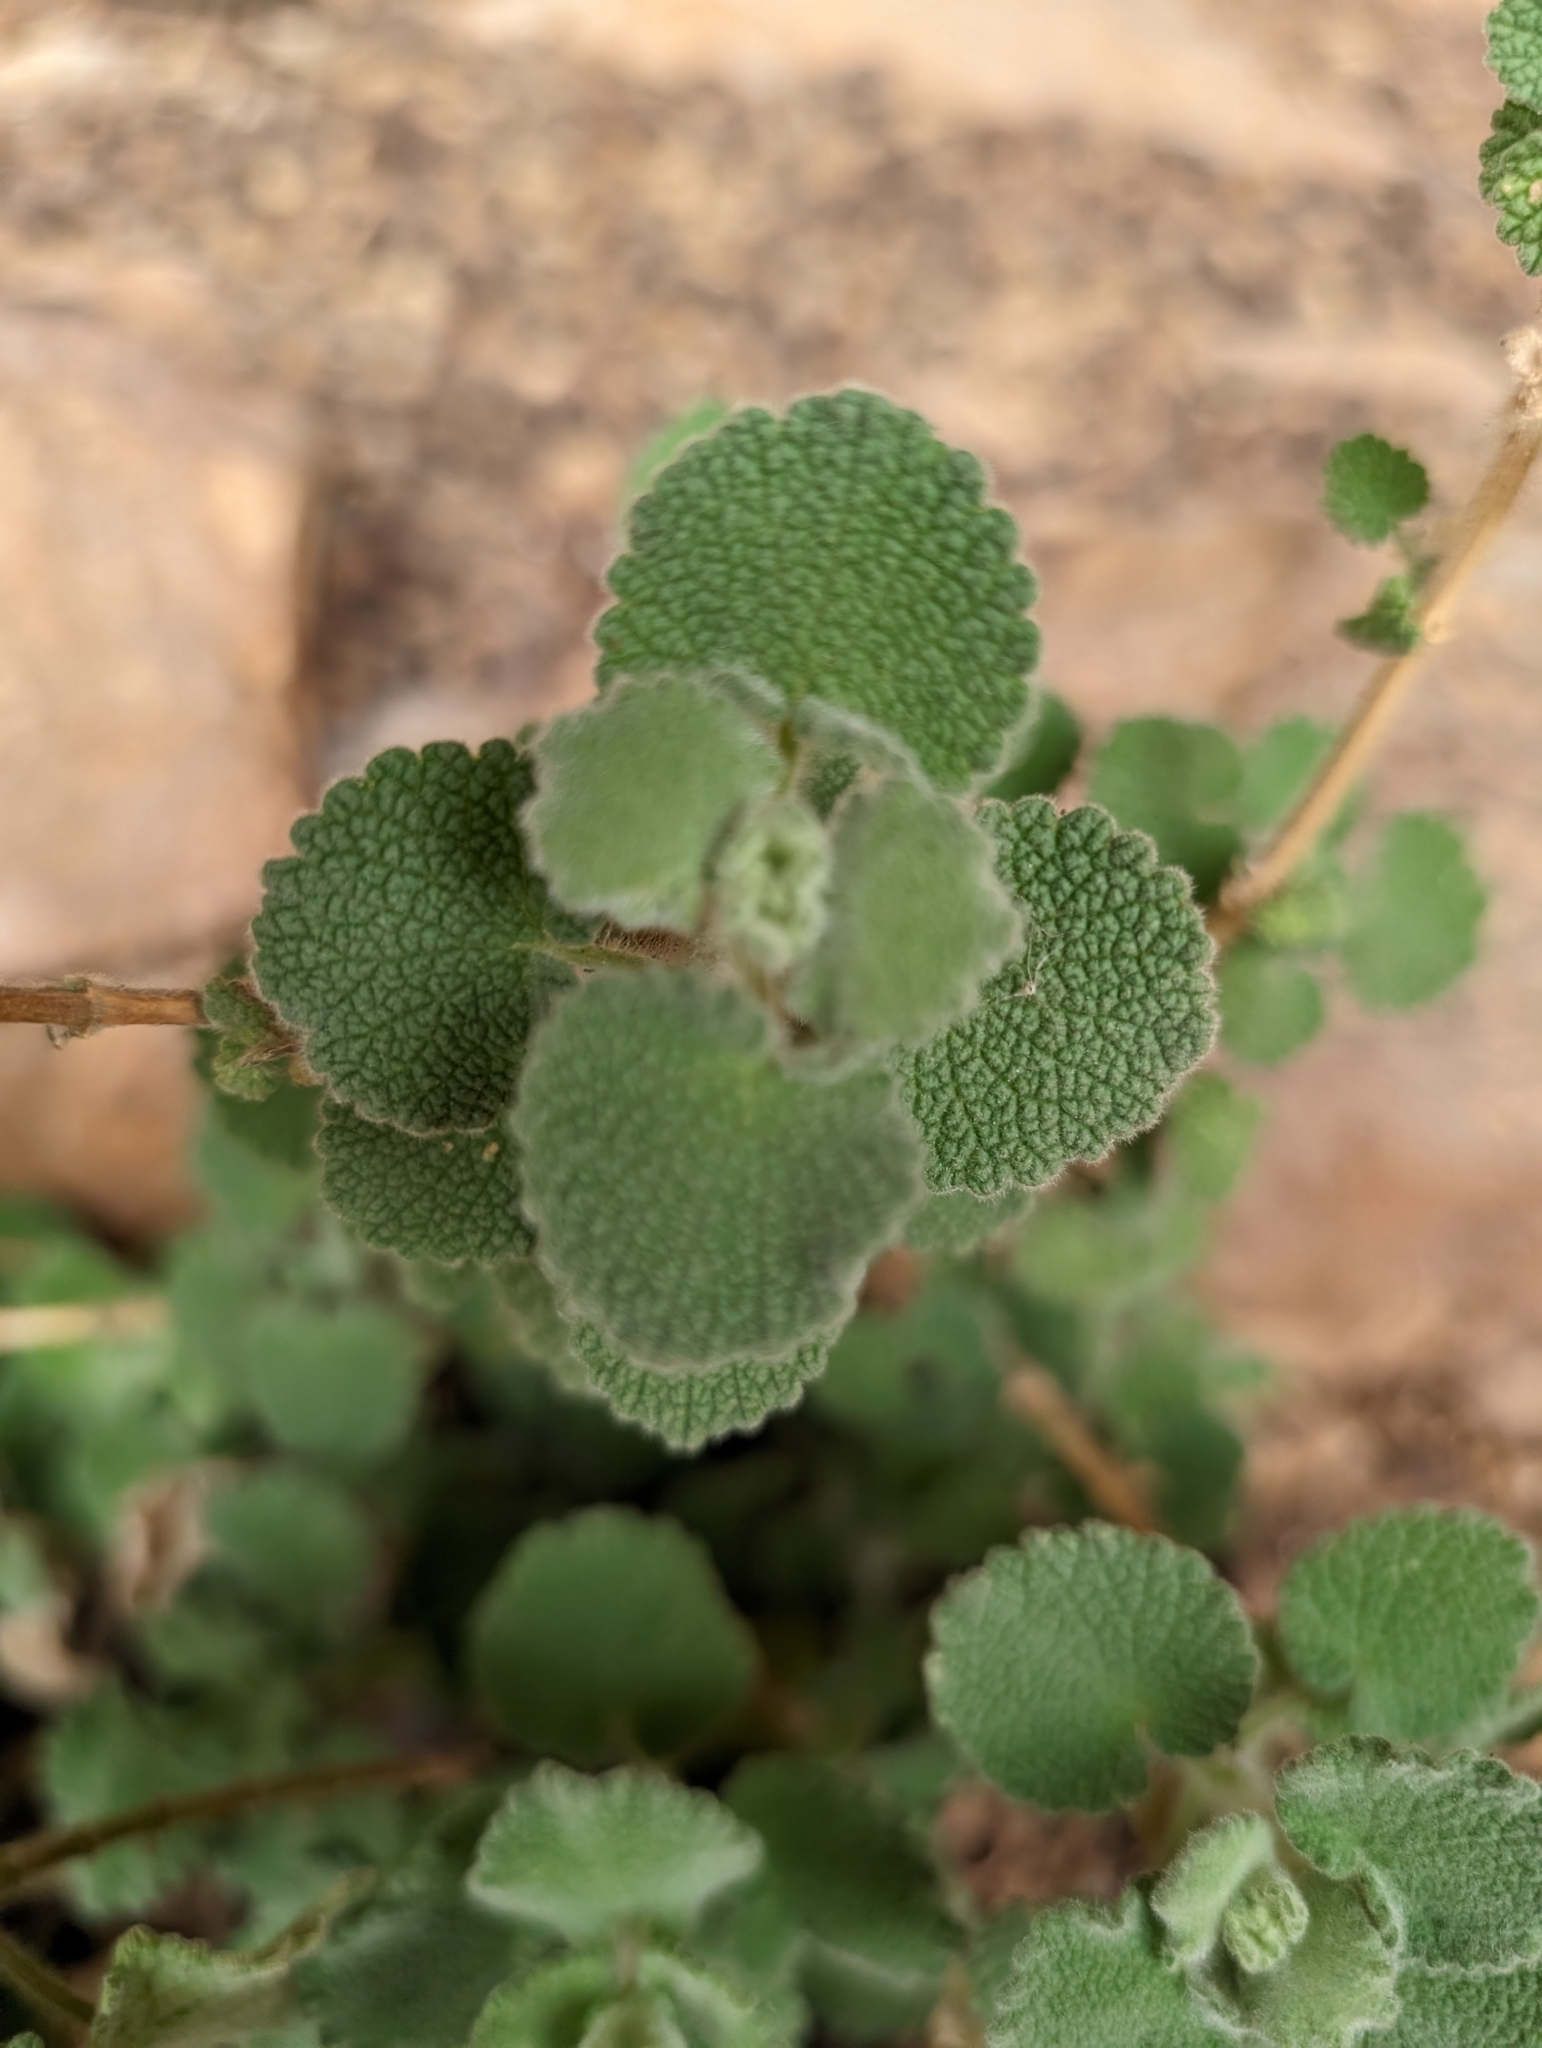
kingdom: Plantae
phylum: Tracheophyta
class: Magnoliopsida
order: Lamiales
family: Lamiaceae
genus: Pseudodictamnus
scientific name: Pseudodictamnus hirsutus
